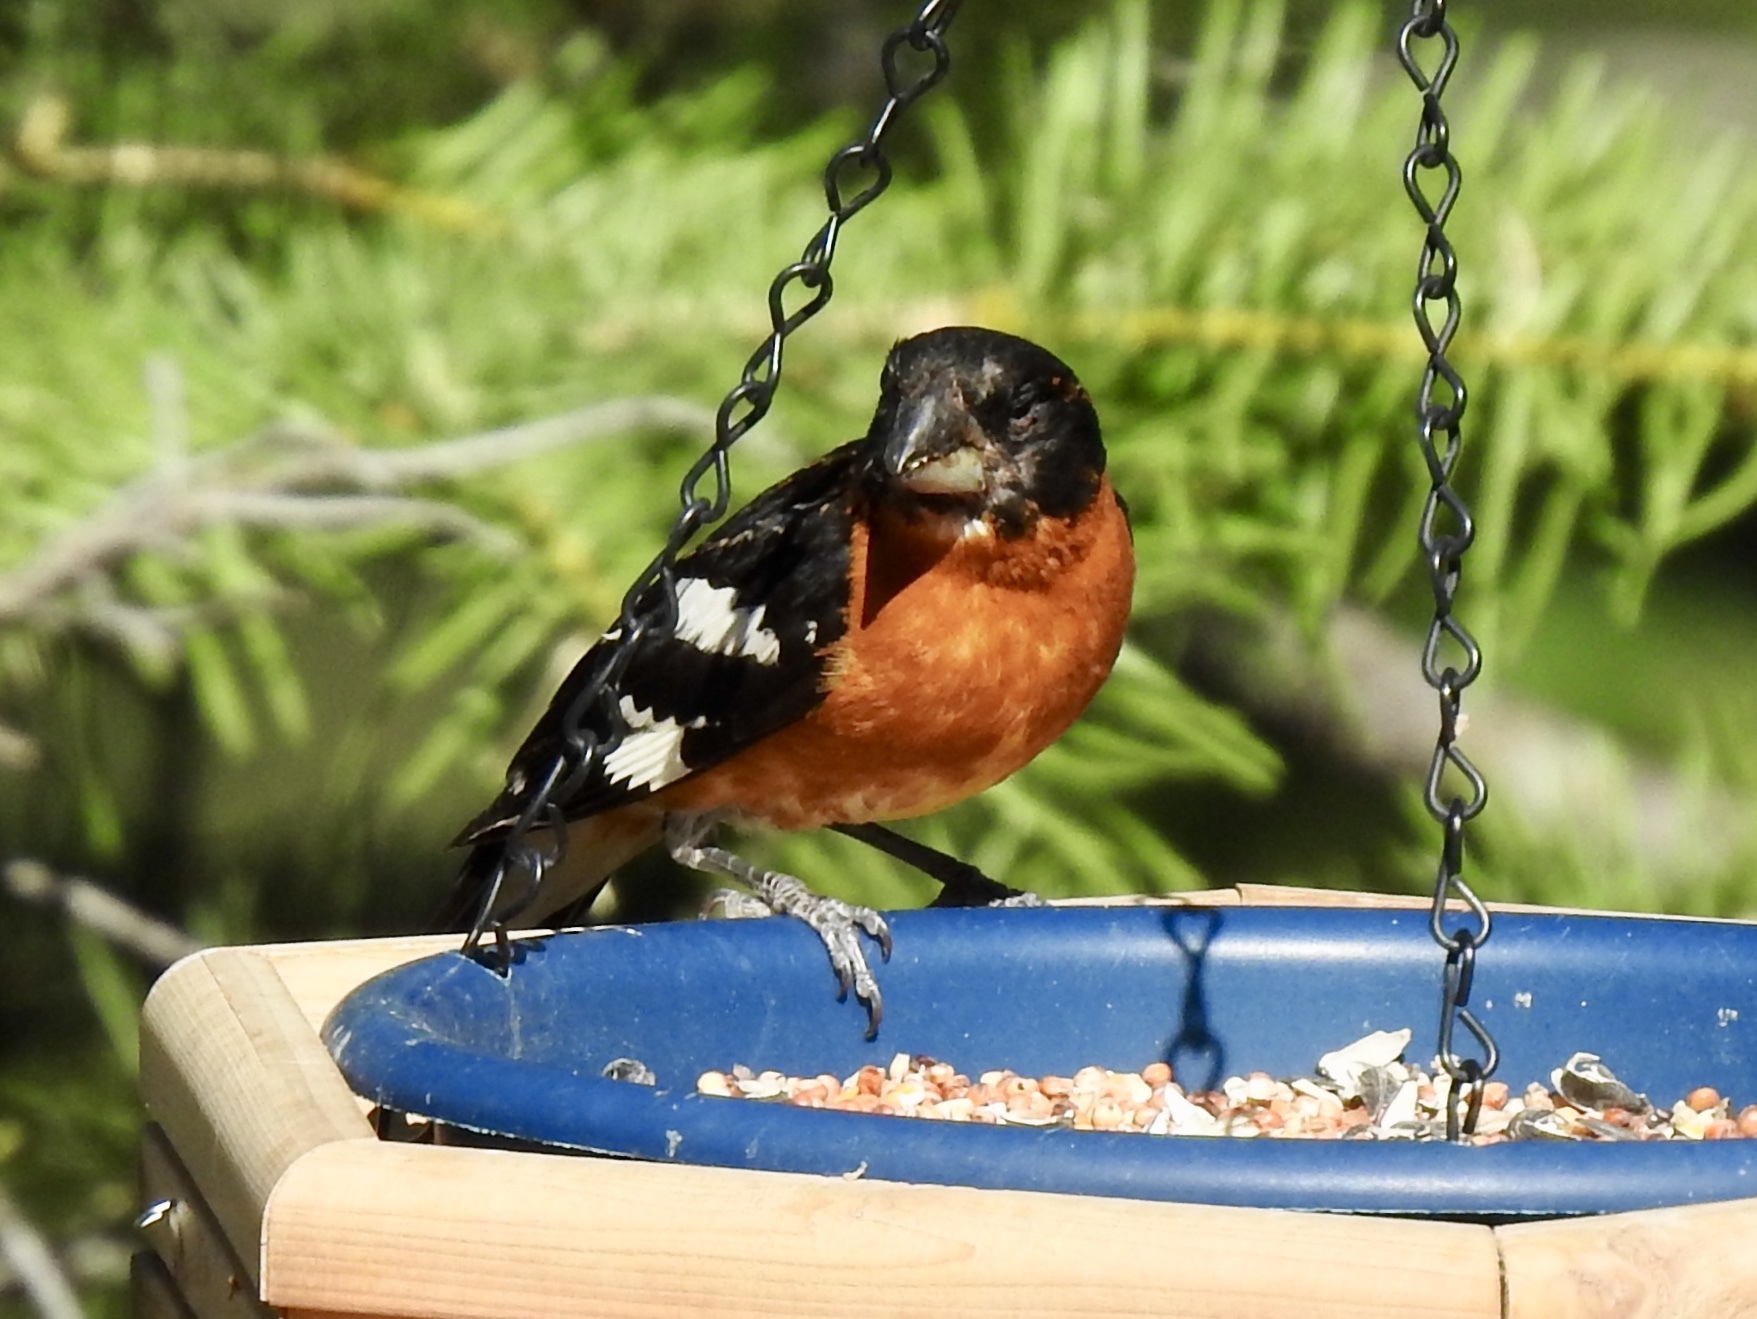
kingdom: Animalia
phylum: Chordata
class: Aves
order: Passeriformes
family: Cardinalidae
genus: Pheucticus
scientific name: Pheucticus melanocephalus
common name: Black-headed grosbeak
